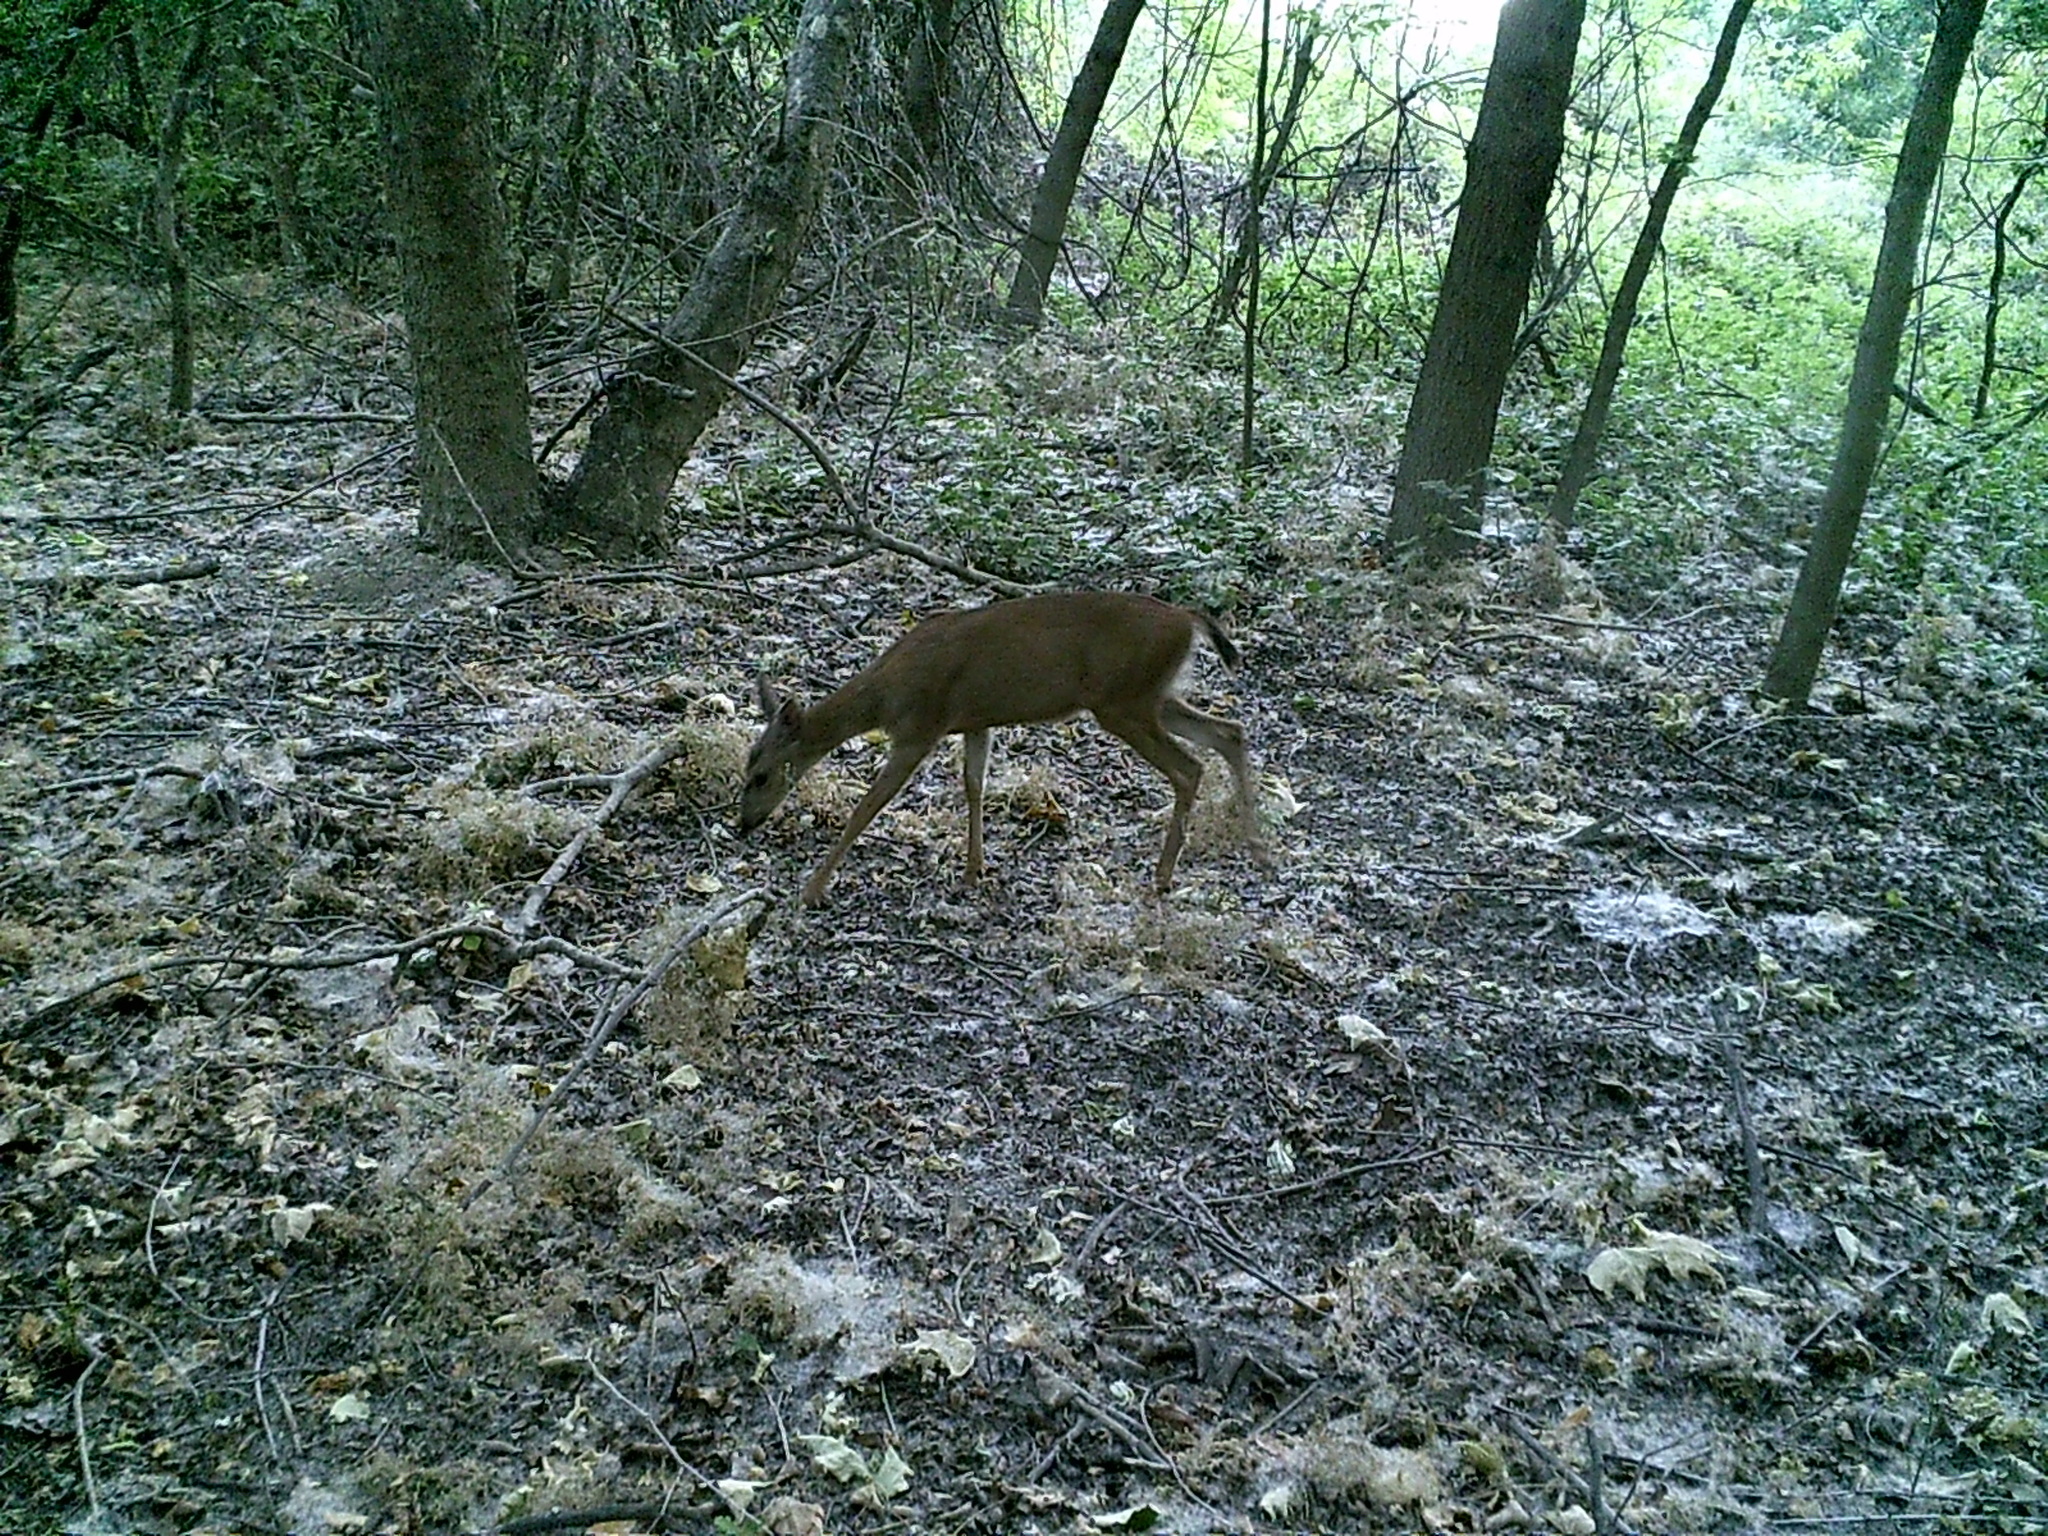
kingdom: Animalia
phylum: Chordata
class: Mammalia
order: Artiodactyla
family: Cervidae
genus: Odocoileus
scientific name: Odocoileus hemionus
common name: Mule deer
